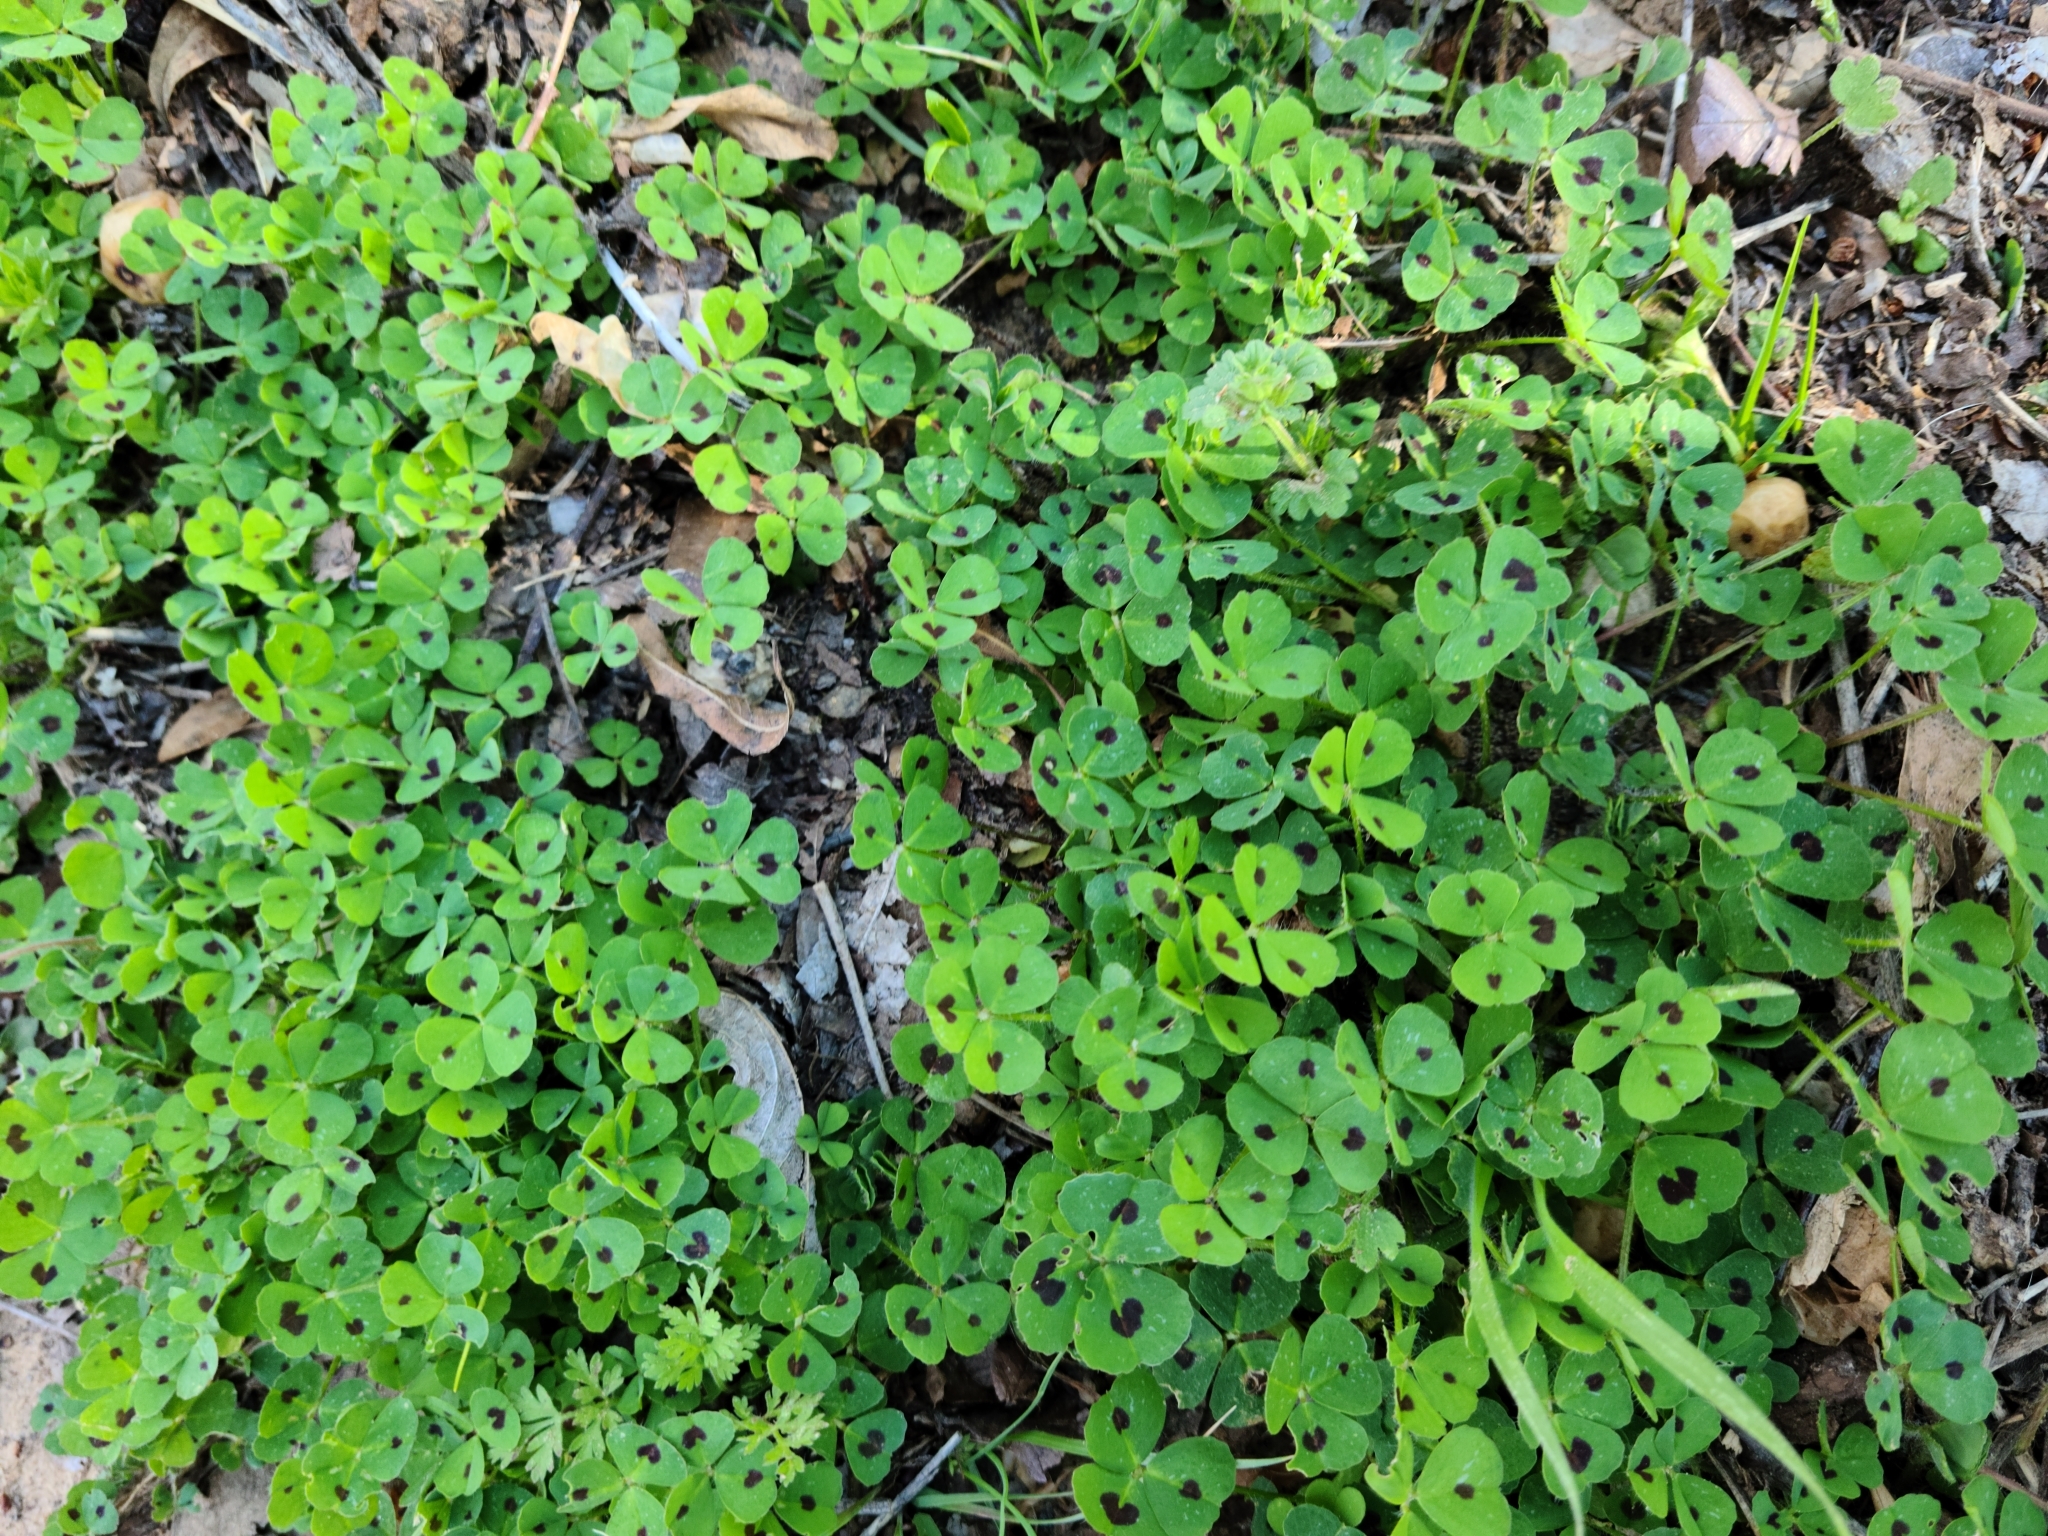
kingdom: Plantae
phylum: Tracheophyta
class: Magnoliopsida
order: Fabales
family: Fabaceae
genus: Medicago
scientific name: Medicago arabica
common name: Spotted medick
